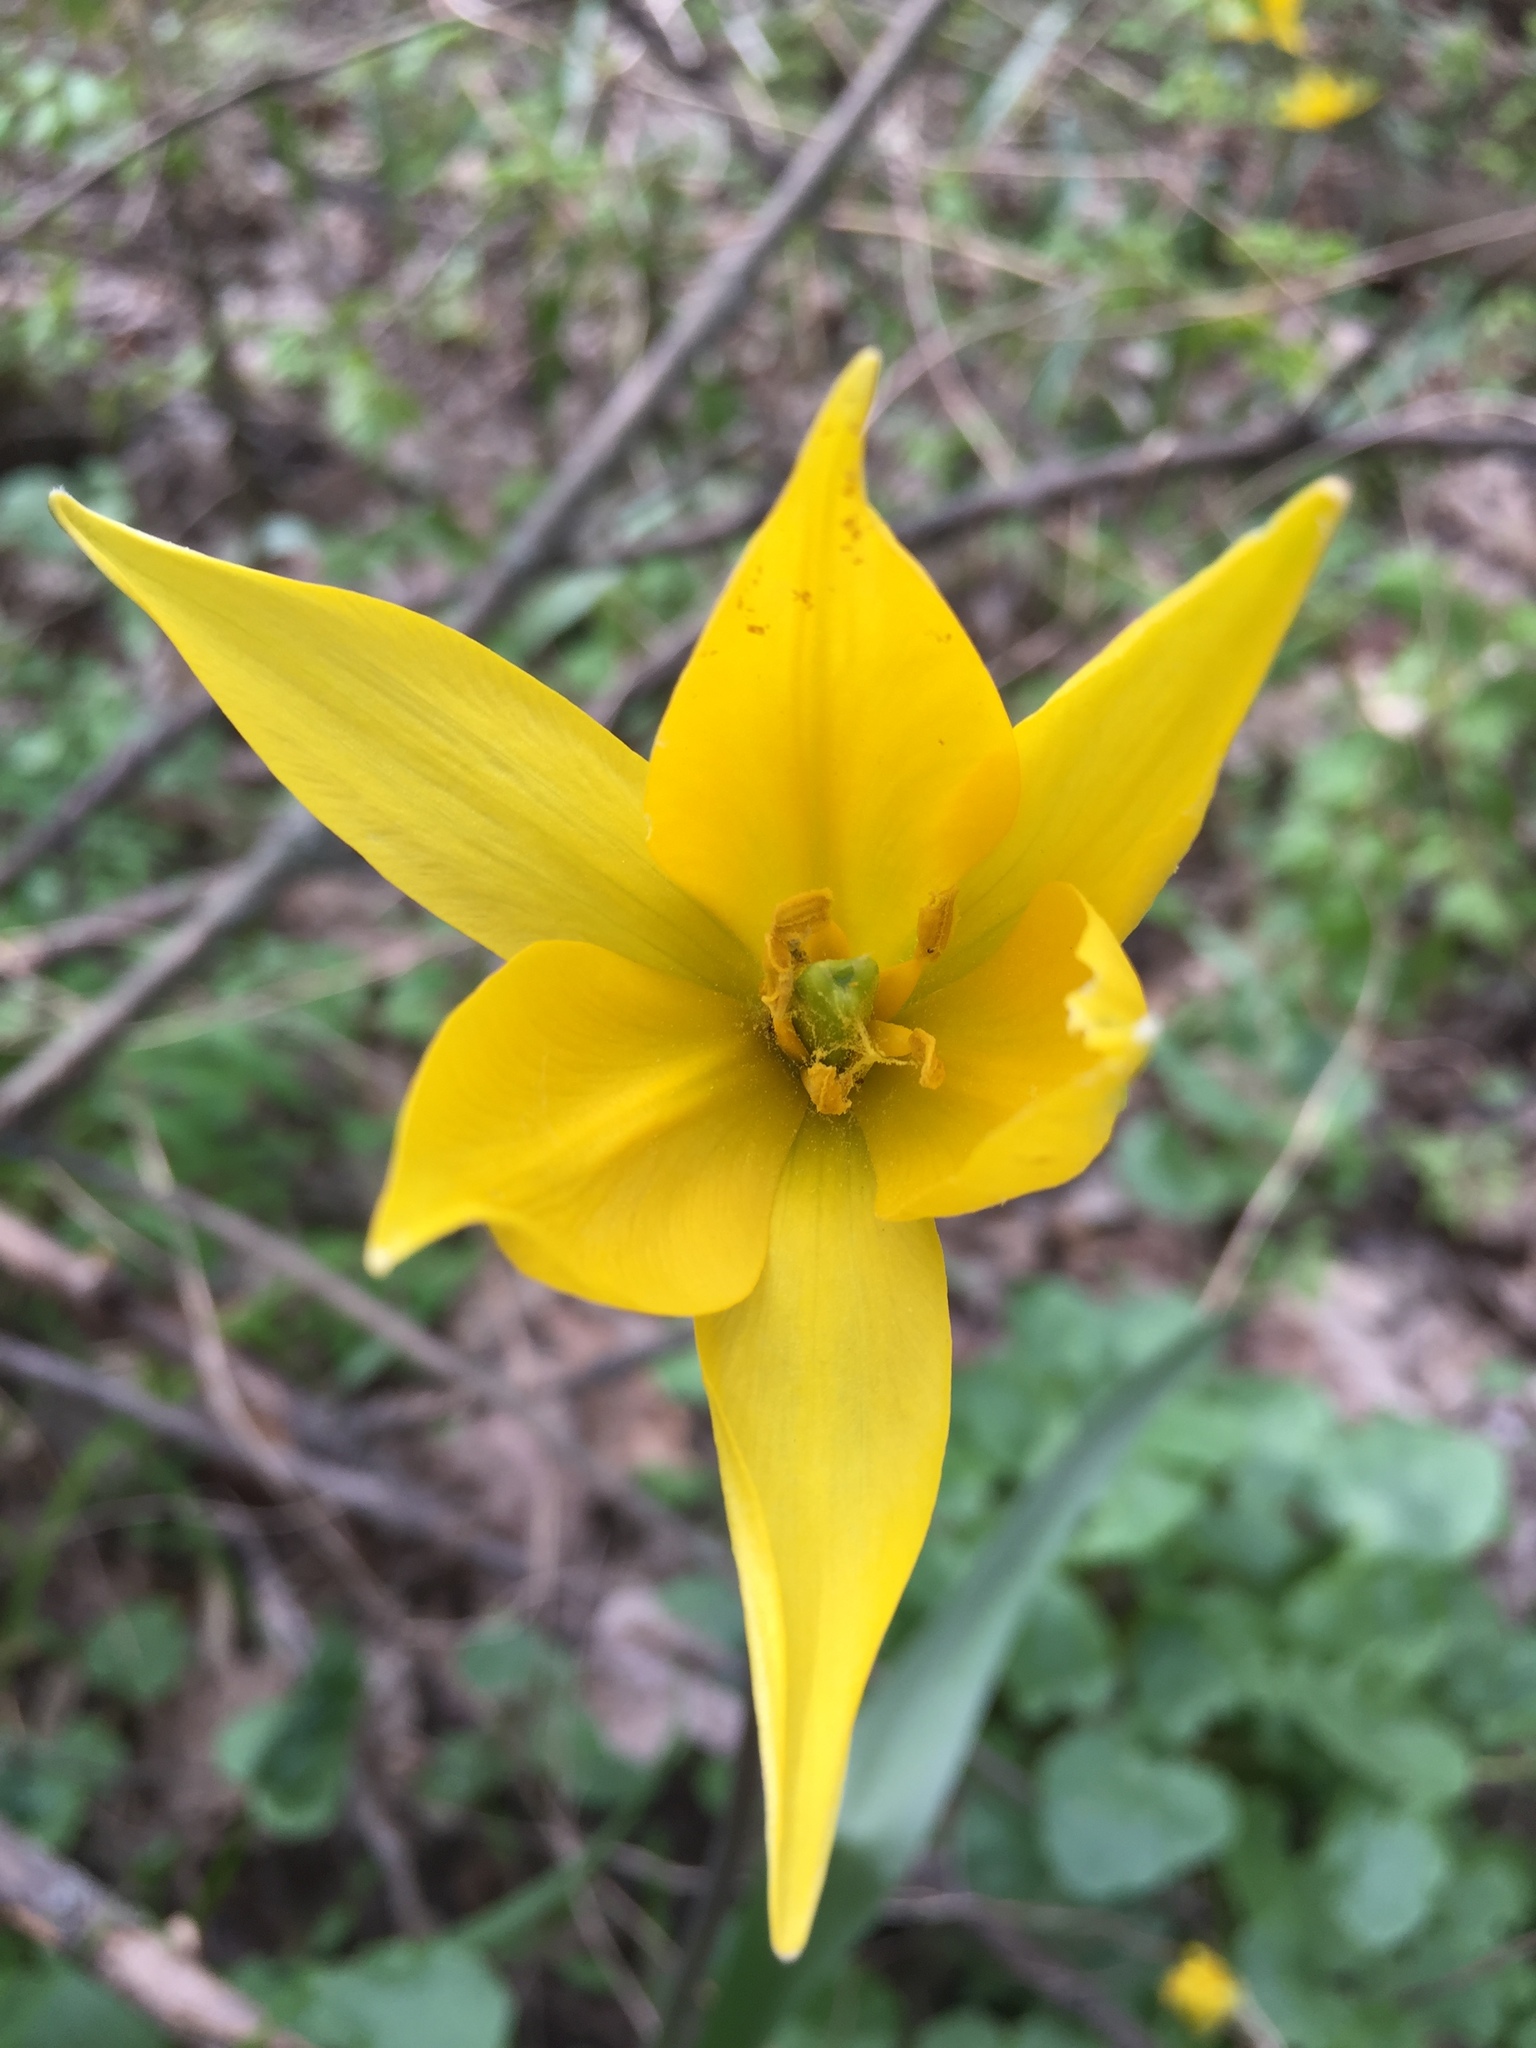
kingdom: Plantae
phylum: Tracheophyta
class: Liliopsida
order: Liliales
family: Liliaceae
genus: Tulipa
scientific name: Tulipa sylvestris
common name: Wild tulip
